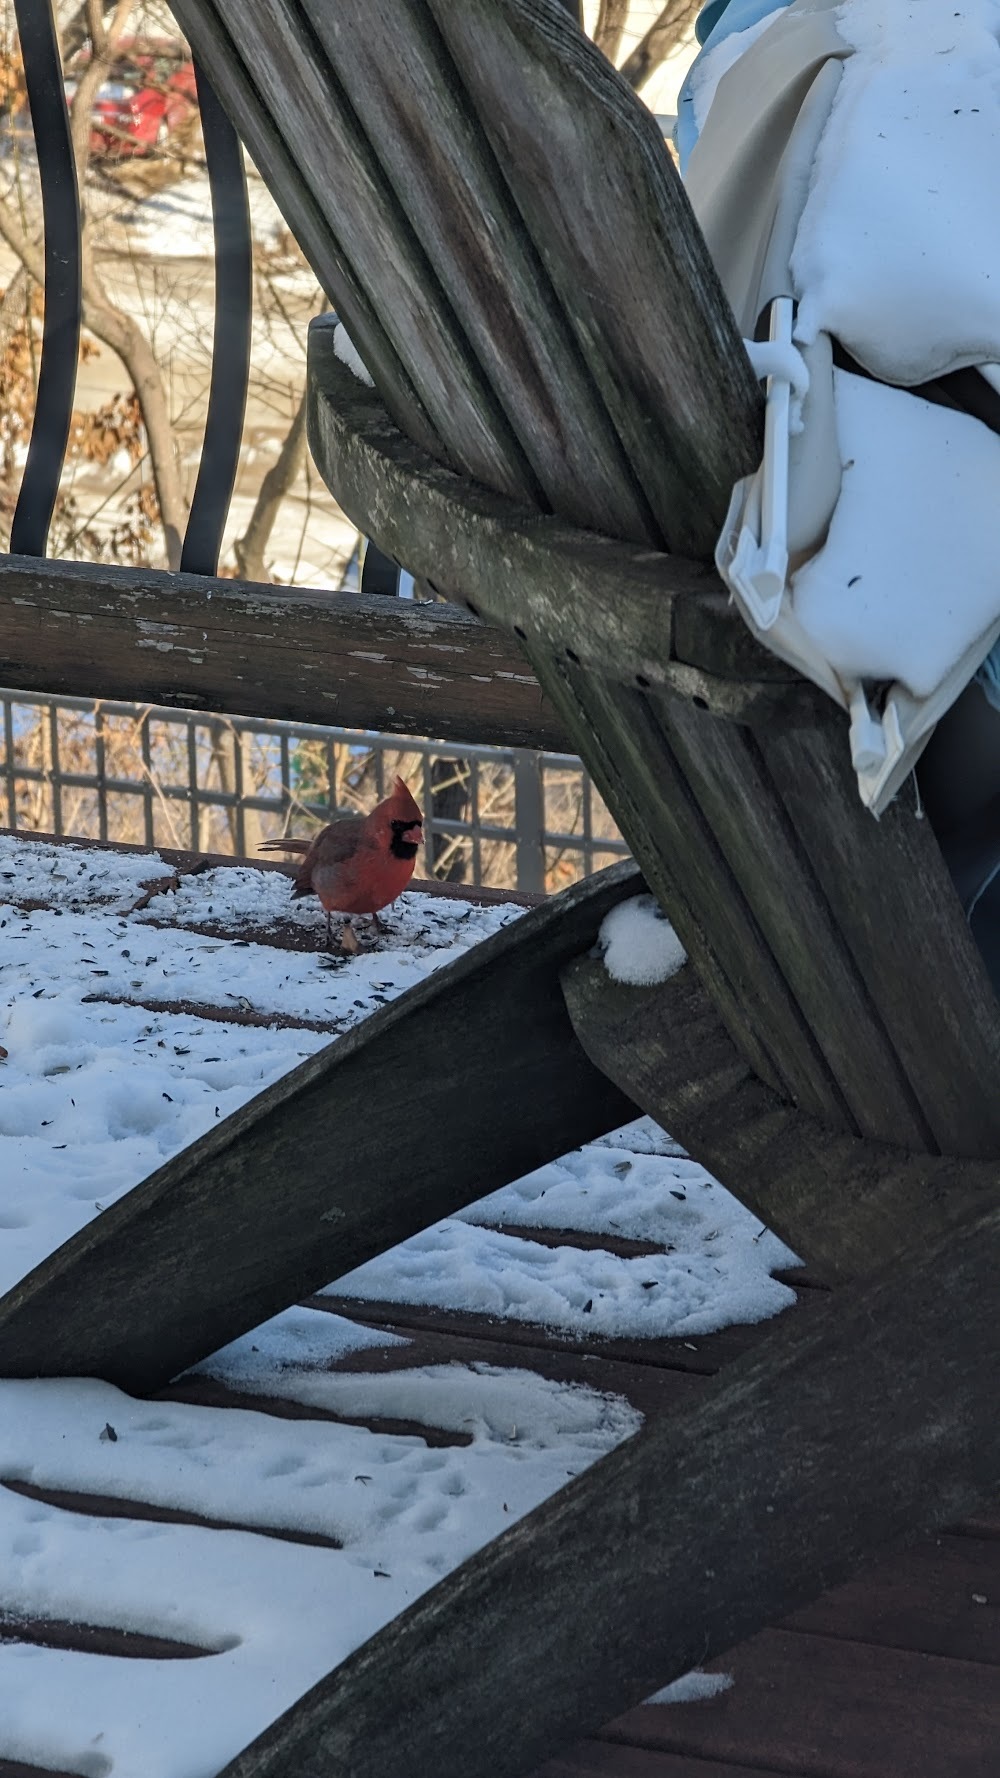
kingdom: Animalia
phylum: Chordata
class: Aves
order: Passeriformes
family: Cardinalidae
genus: Cardinalis
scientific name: Cardinalis cardinalis
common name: Northern cardinal
